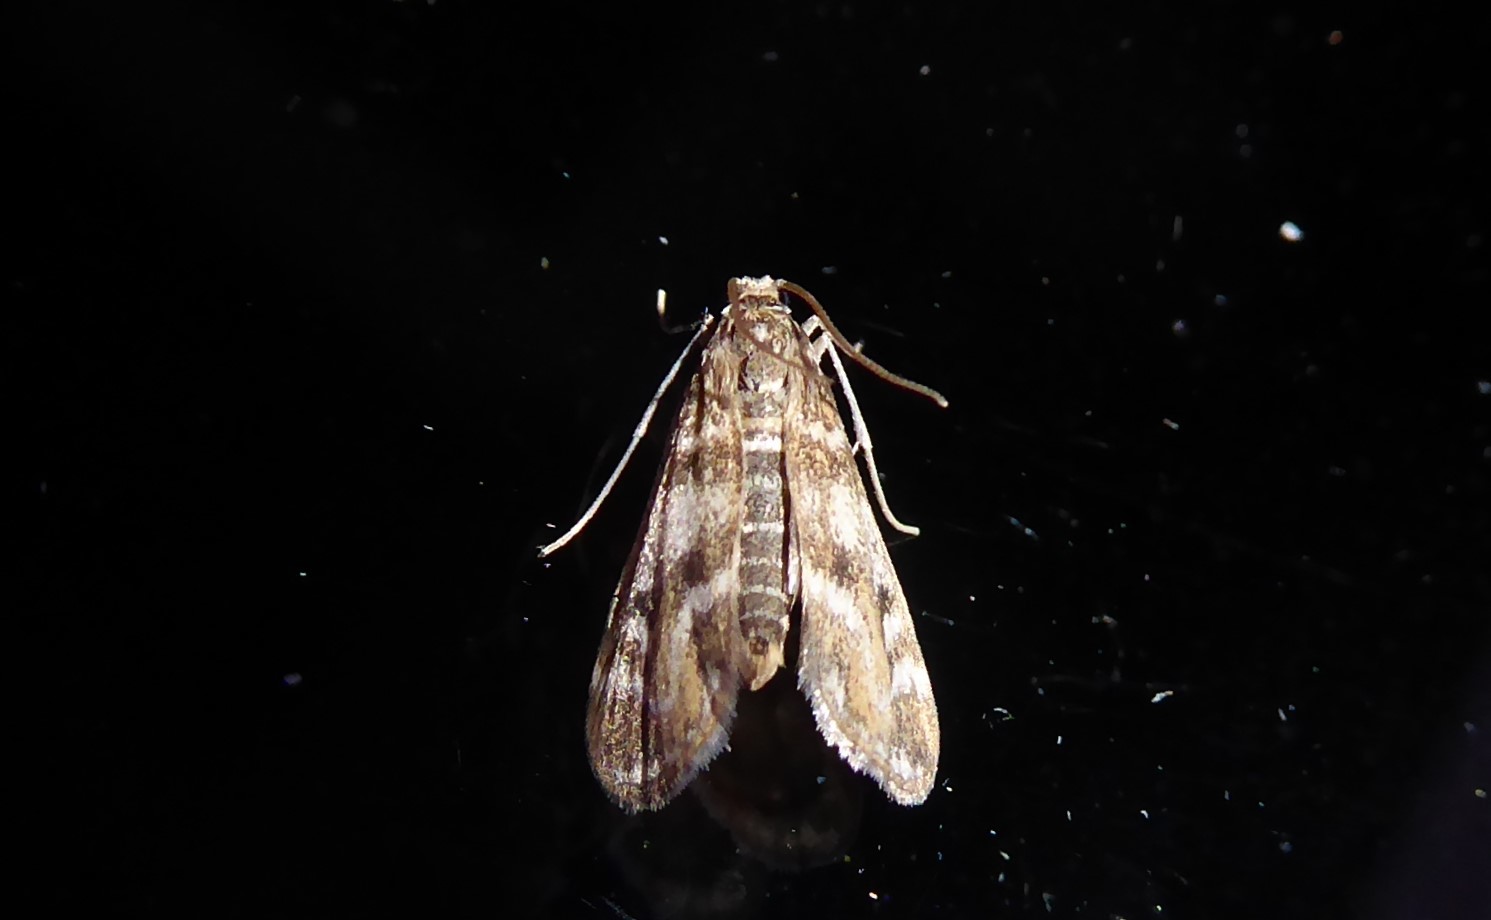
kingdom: Animalia
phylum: Arthropoda
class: Insecta
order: Lepidoptera
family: Crambidae
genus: Hygraula
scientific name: Hygraula nitens
